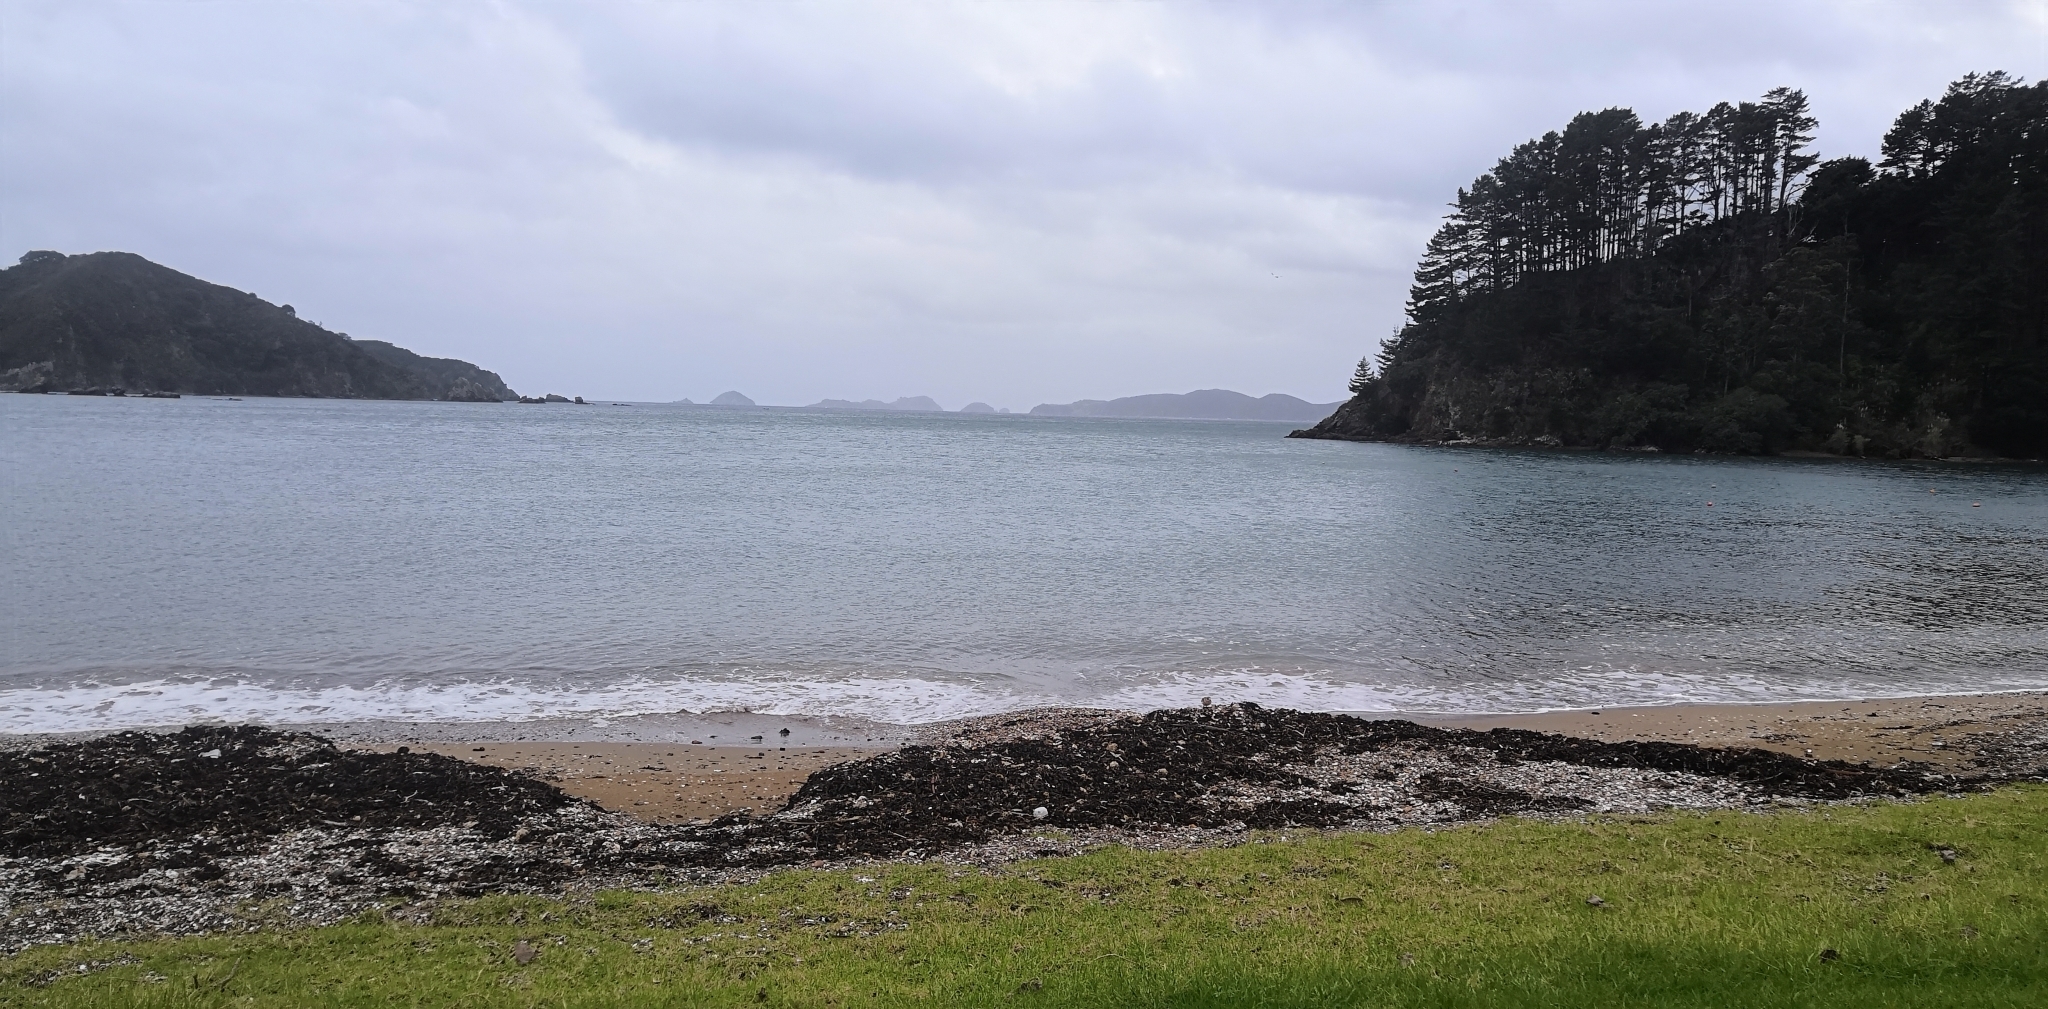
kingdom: Animalia
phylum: Chordata
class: Aves
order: Charadriiformes
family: Charadriidae
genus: Anarhynchus
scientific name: Anarhynchus
